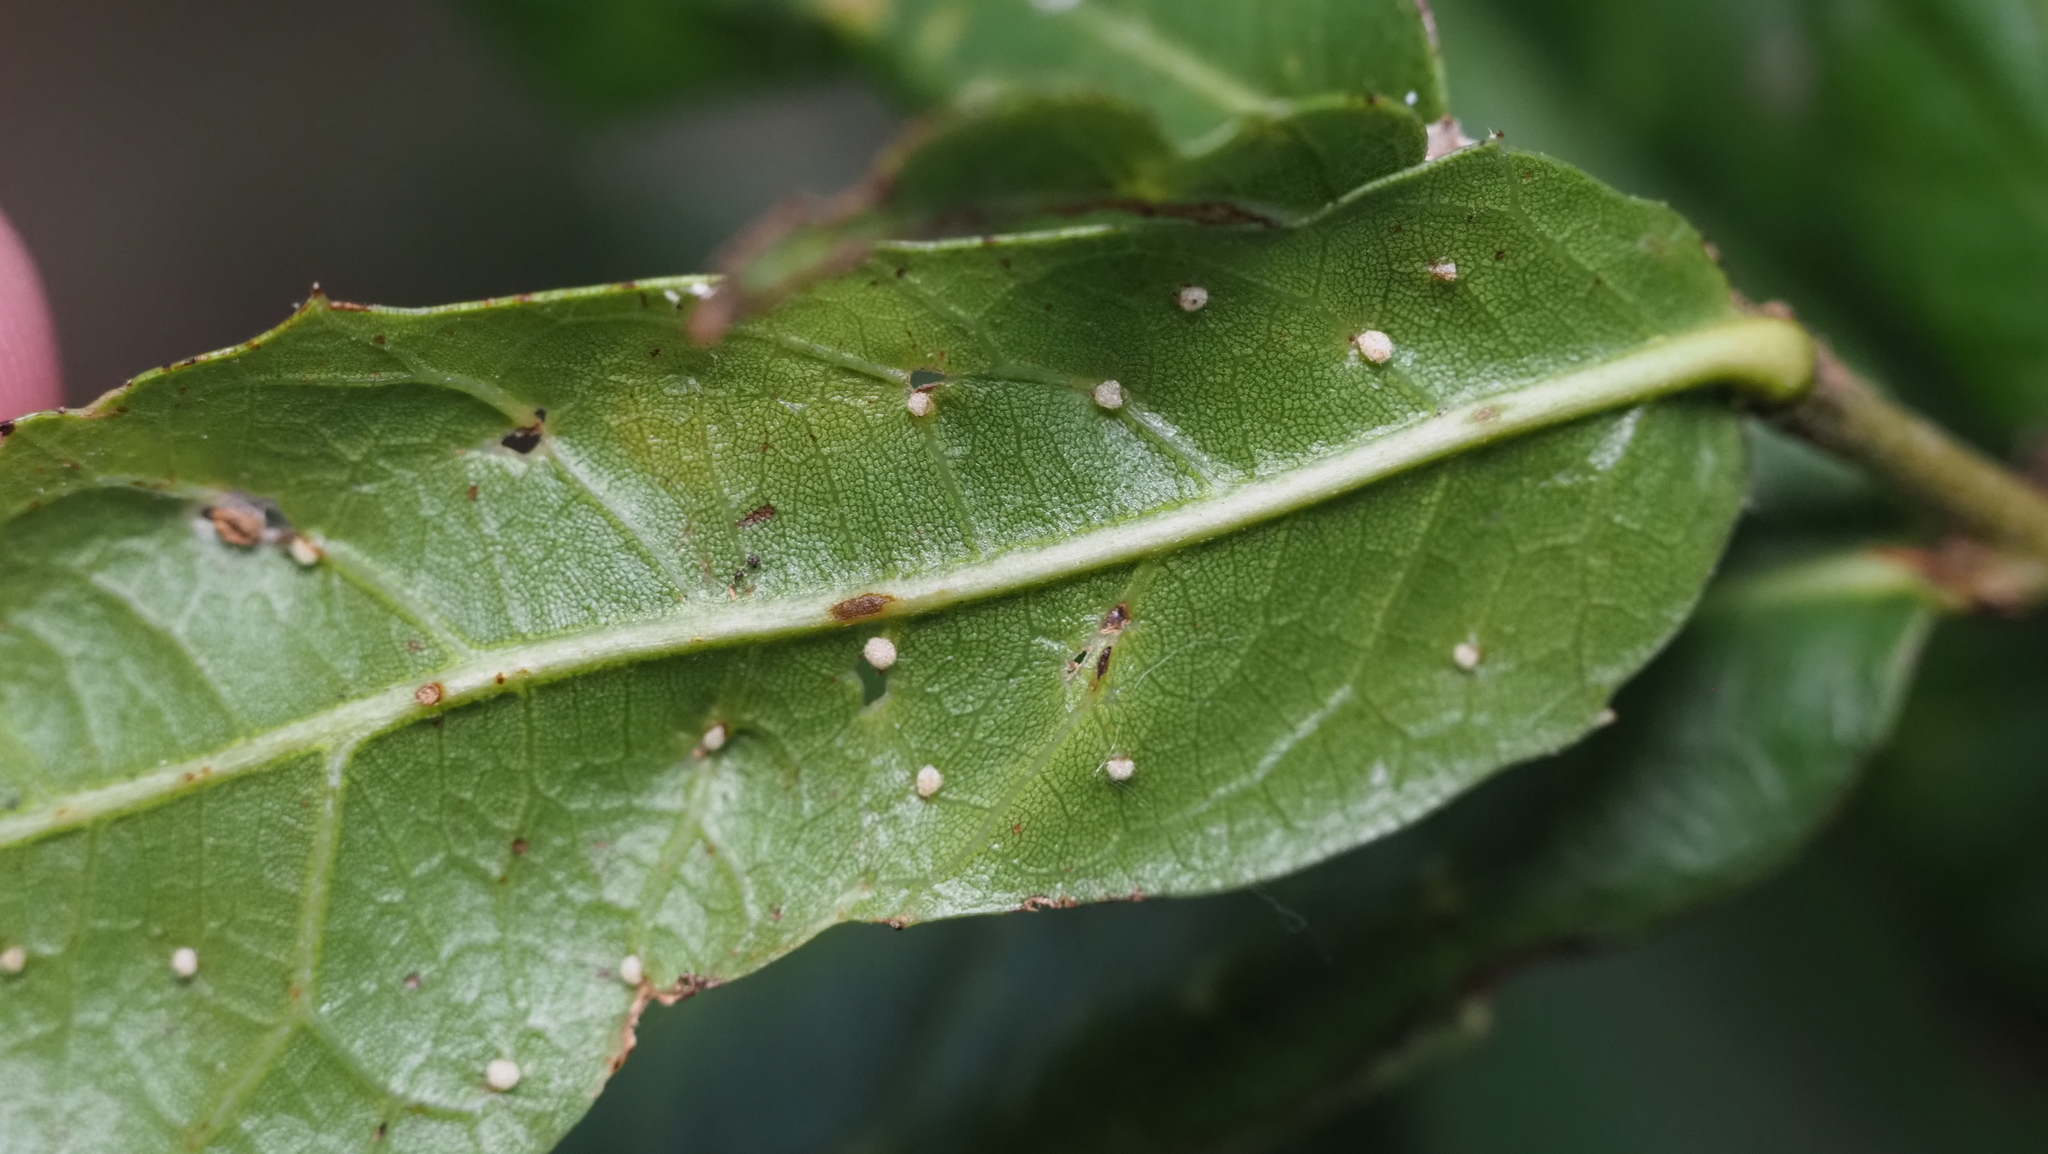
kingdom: Animalia
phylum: Arthropoda
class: Insecta
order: Hymenoptera
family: Cynipidae
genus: Belonocnema
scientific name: Belonocnema kinseyi
